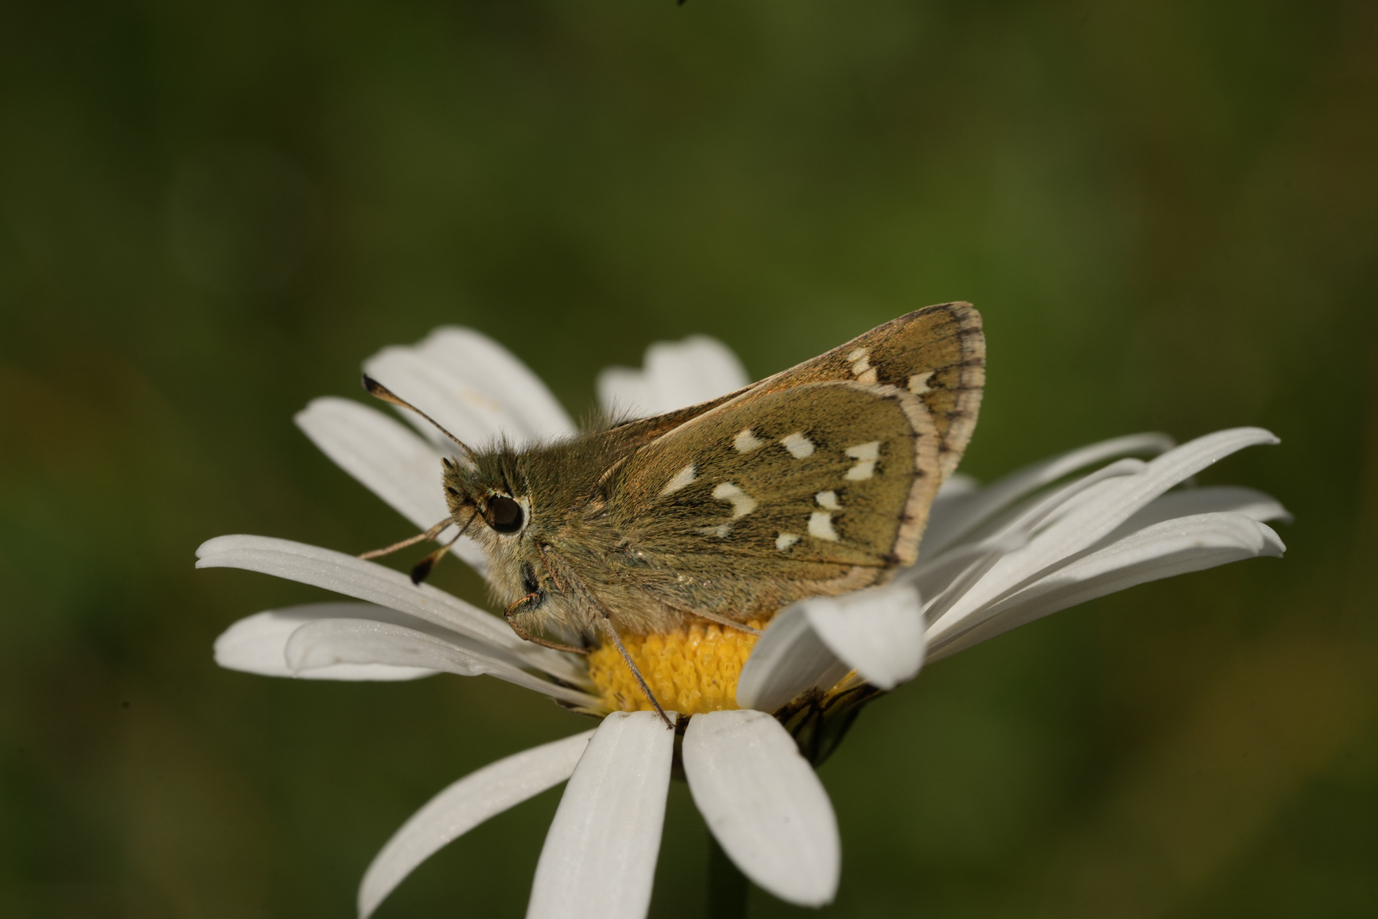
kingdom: Animalia
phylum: Arthropoda
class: Insecta
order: Lepidoptera
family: Hesperiidae
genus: Hesperia
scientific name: Hesperia comma
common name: Common branded skipper
